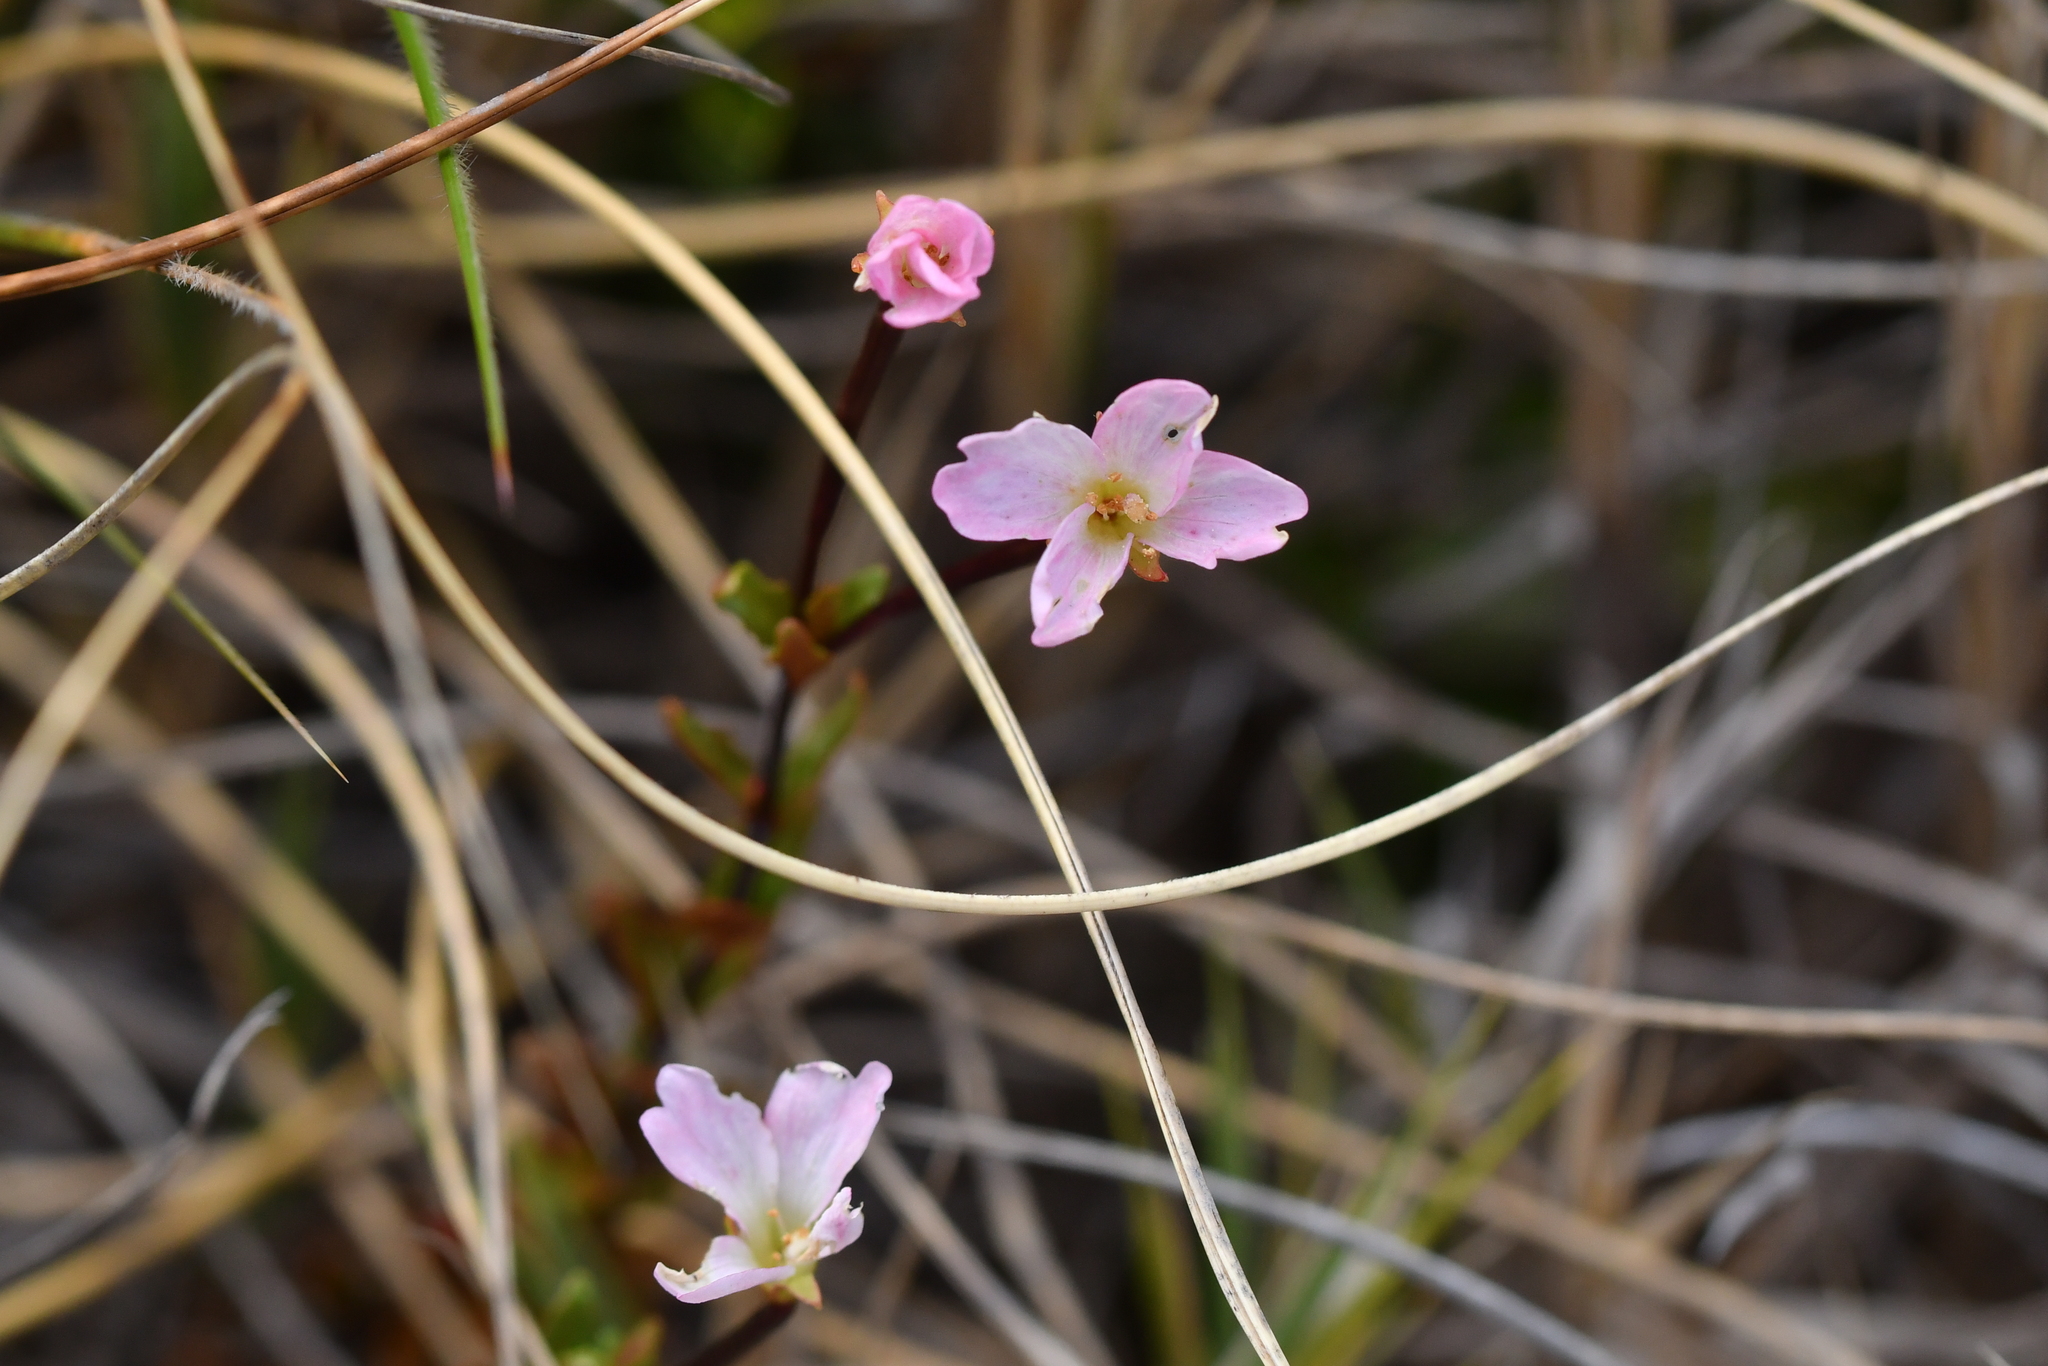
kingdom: Plantae
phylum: Tracheophyta
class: Magnoliopsida
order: Myrtales
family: Onagraceae
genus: Epilobium
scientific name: Epilobium glabellum
